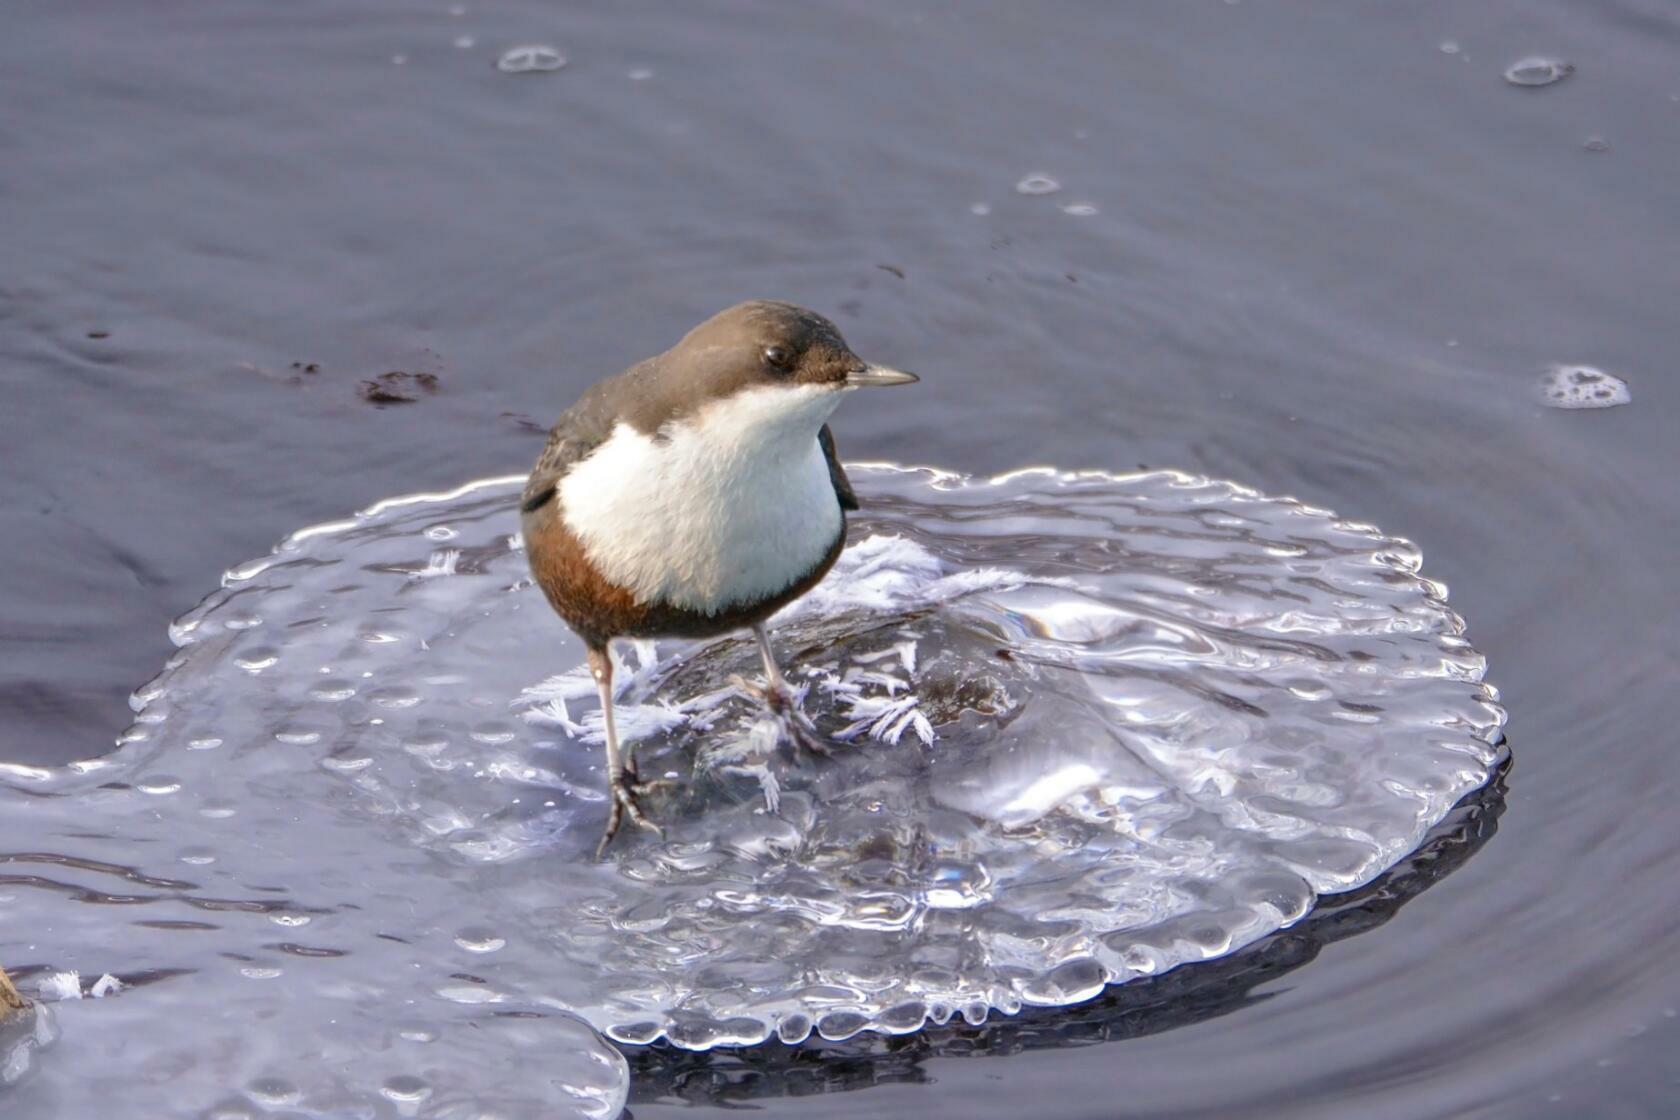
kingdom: Animalia
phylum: Chordata
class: Aves
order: Passeriformes
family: Cinclidae
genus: Cinclus
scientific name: Cinclus cinclus
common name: White-throated dipper
